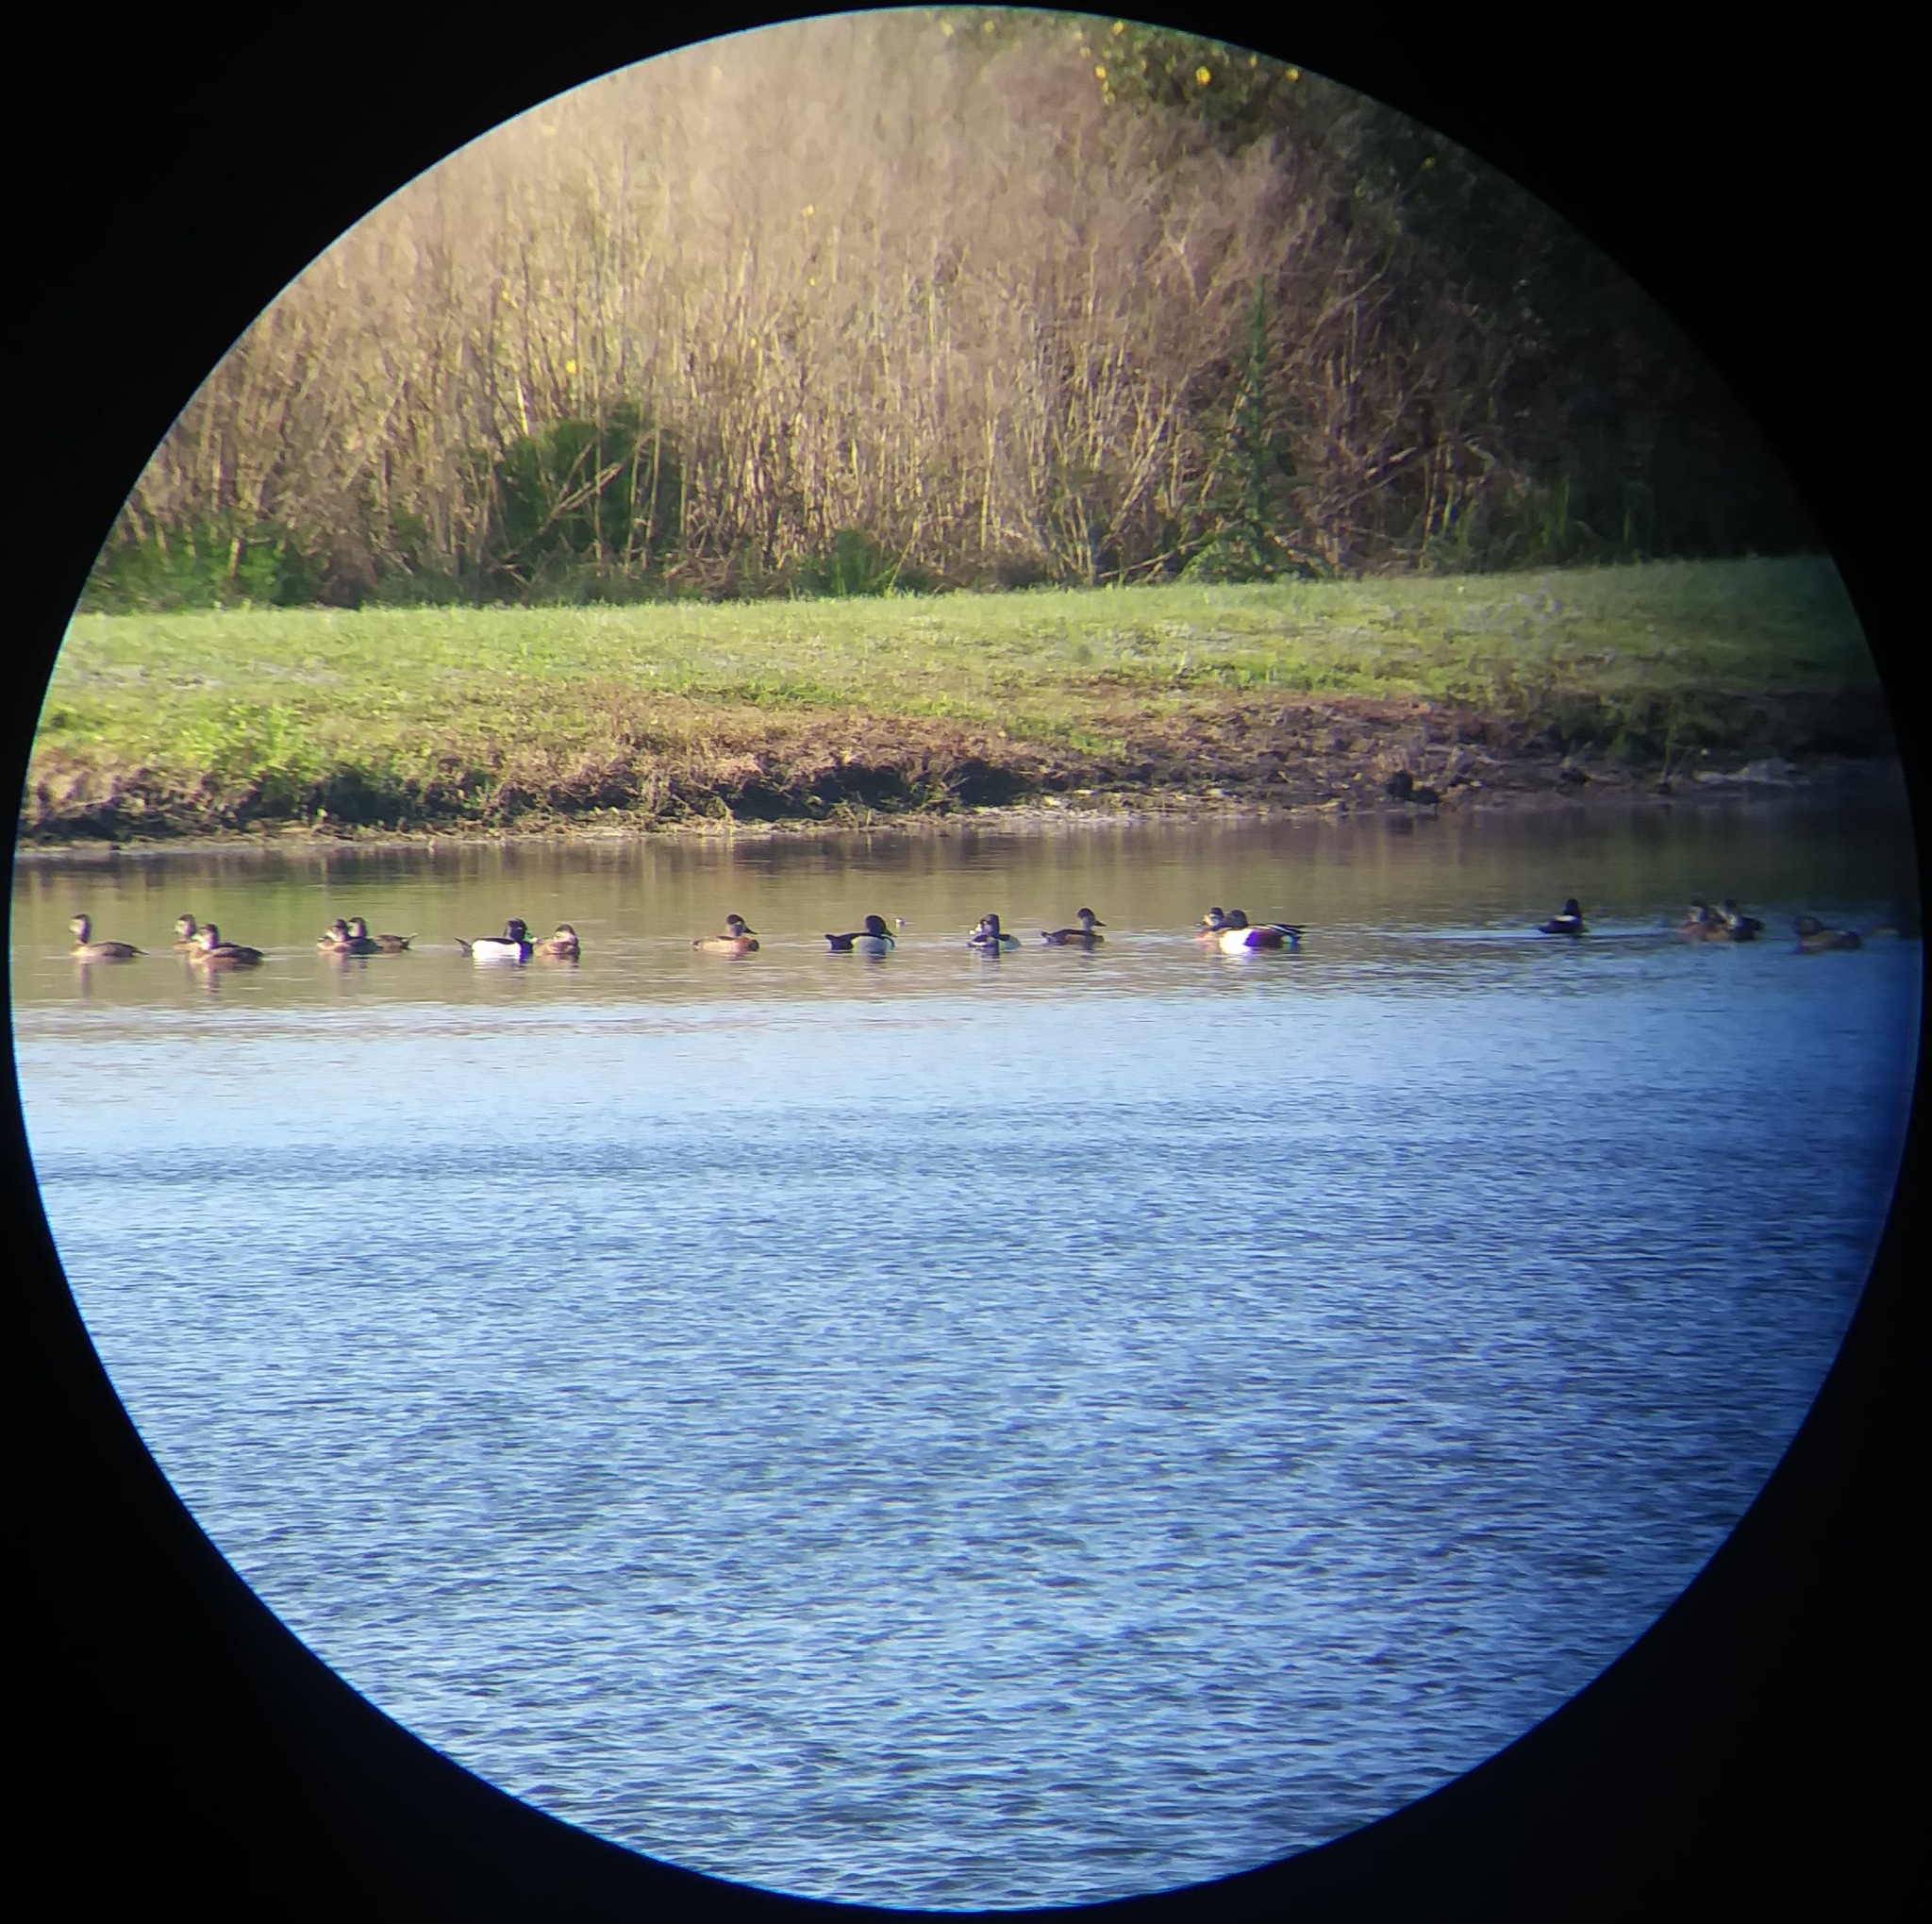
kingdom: Animalia
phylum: Chordata
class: Aves
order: Anseriformes
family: Anatidae
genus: Aythya
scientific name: Aythya collaris
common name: Ring-necked duck
